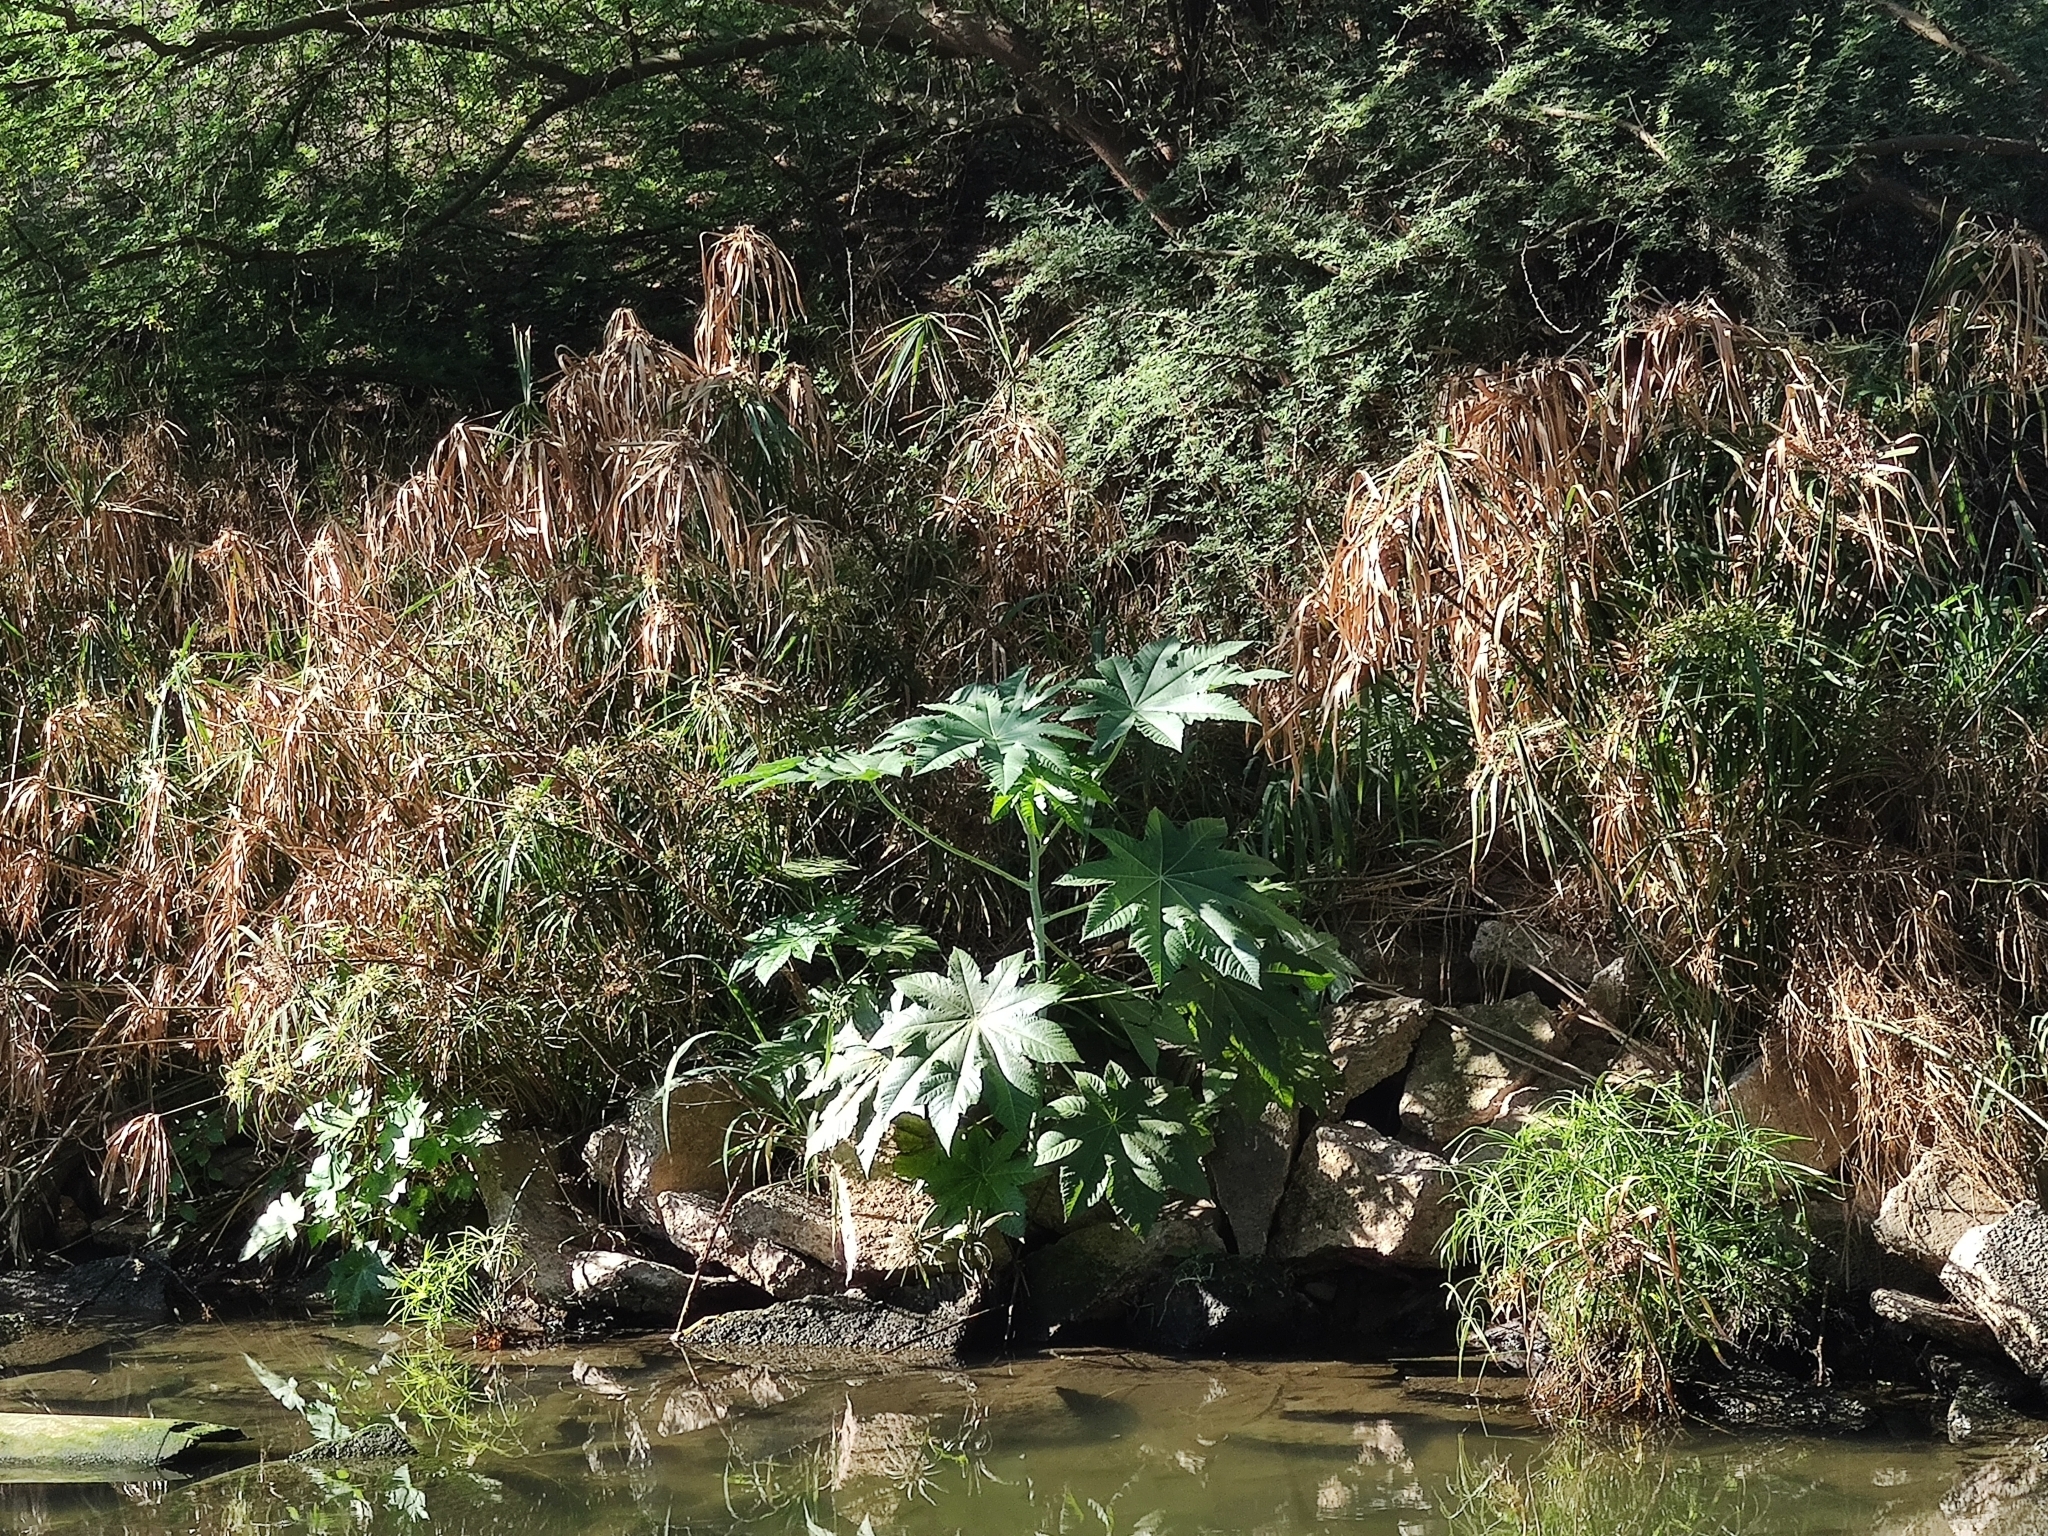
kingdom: Plantae
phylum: Tracheophyta
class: Magnoliopsida
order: Malpighiales
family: Euphorbiaceae
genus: Ricinus
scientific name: Ricinus communis
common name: Castor-oil-plant
